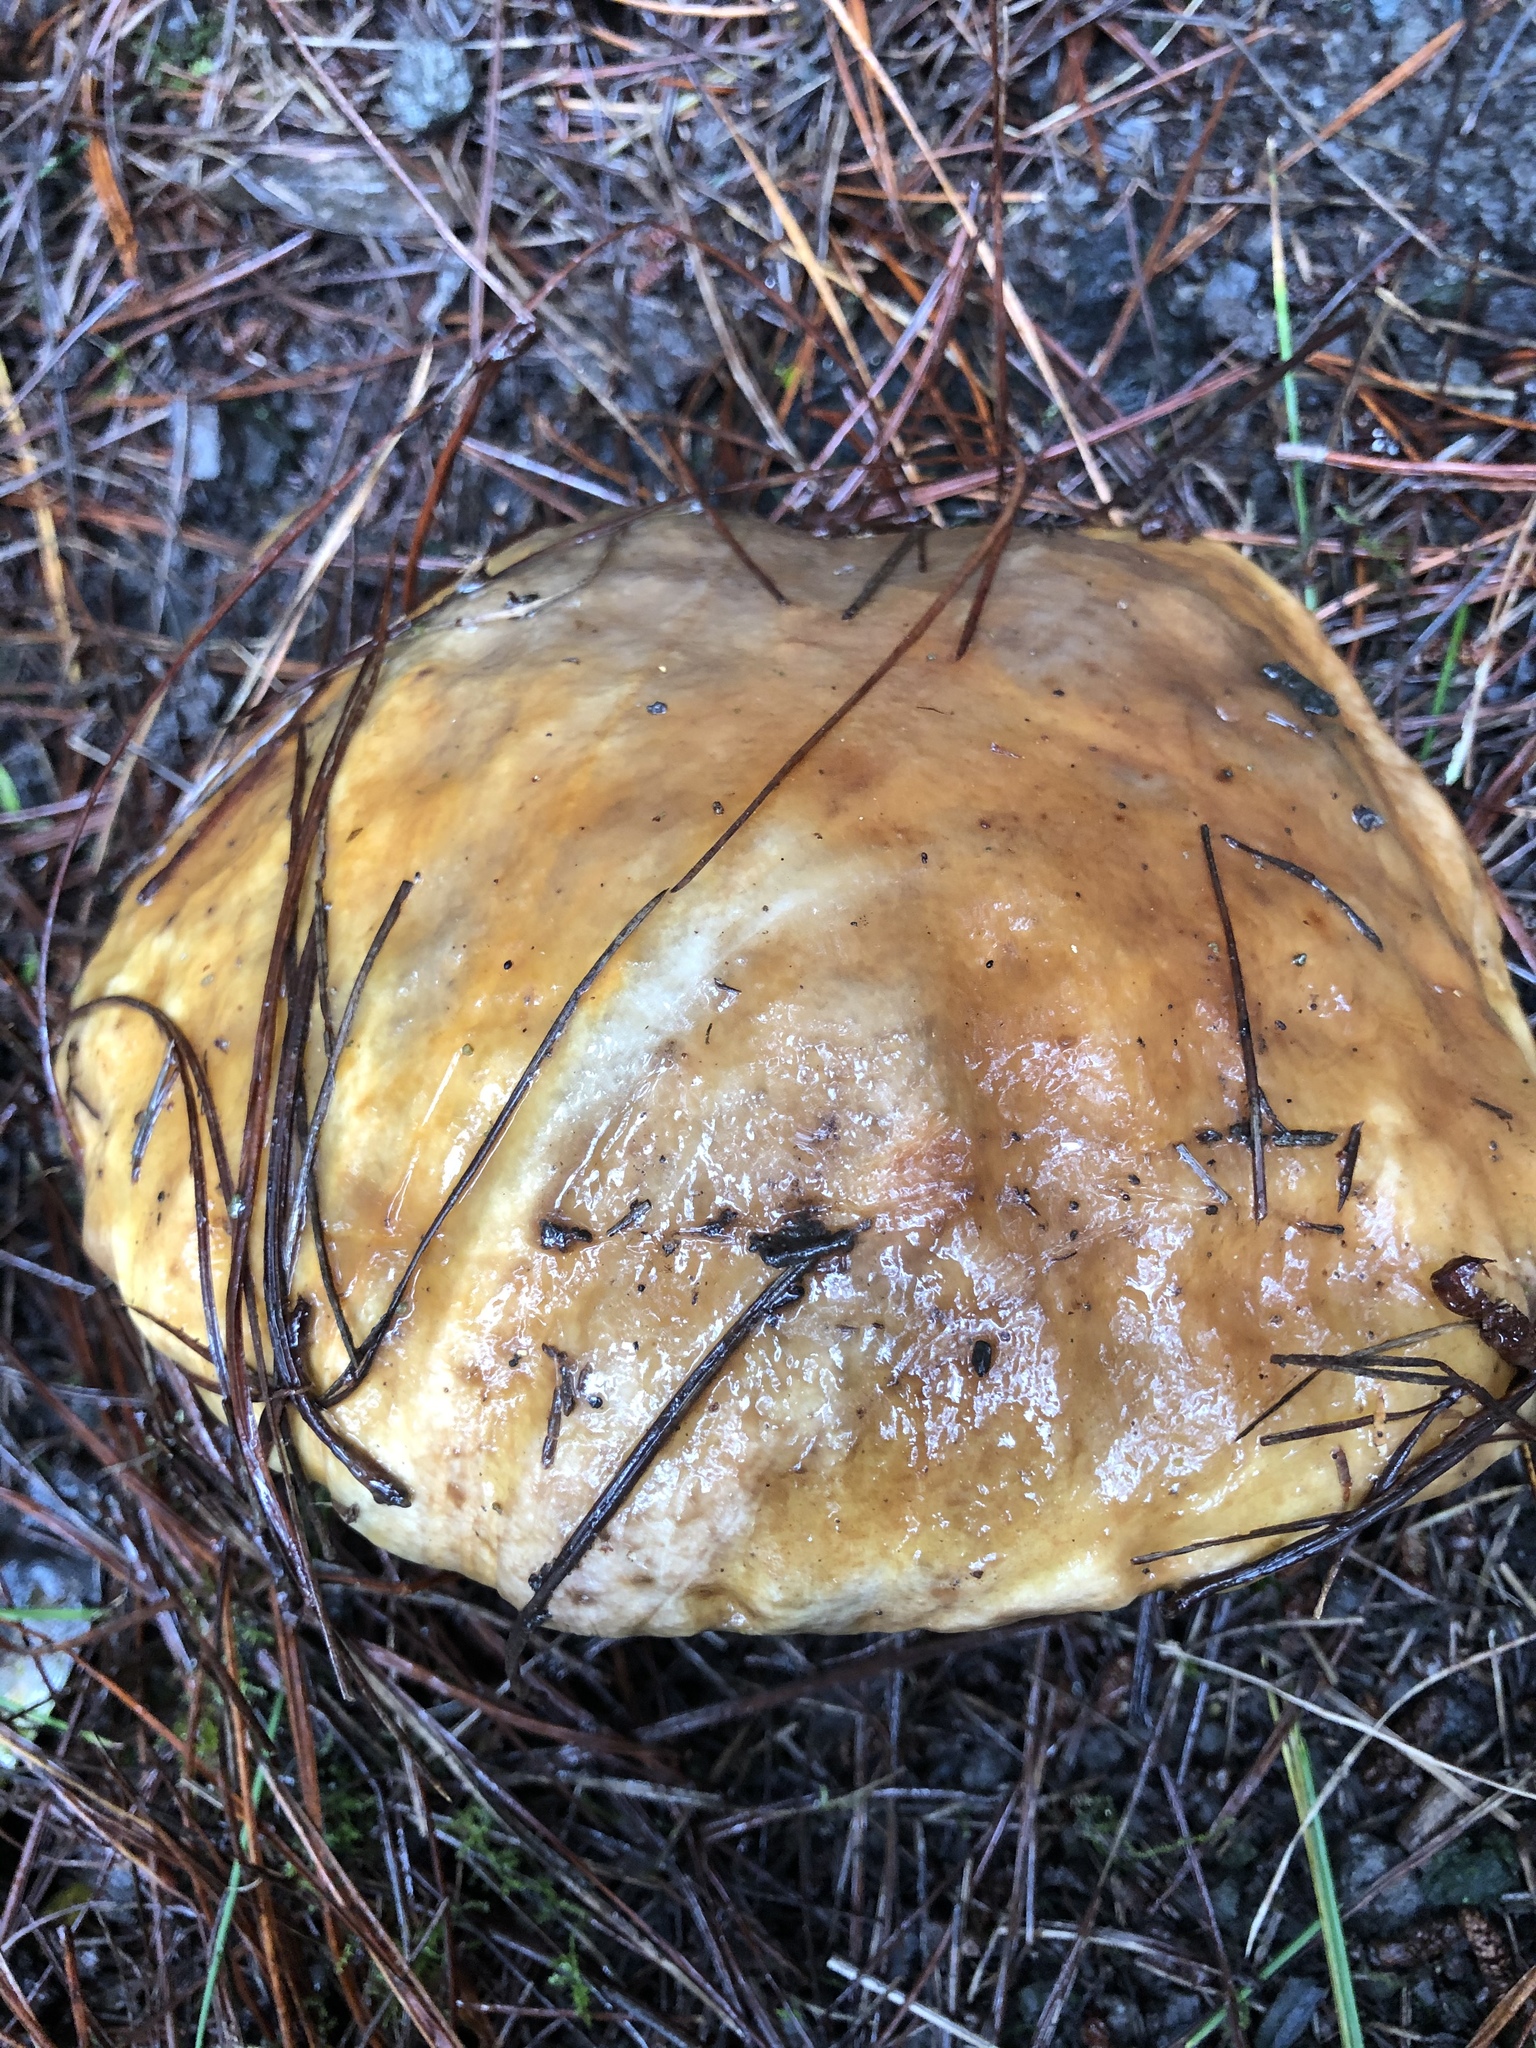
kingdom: Fungi
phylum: Basidiomycota
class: Agaricomycetes
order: Boletales
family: Suillaceae
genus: Suillus
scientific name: Suillus pungens
